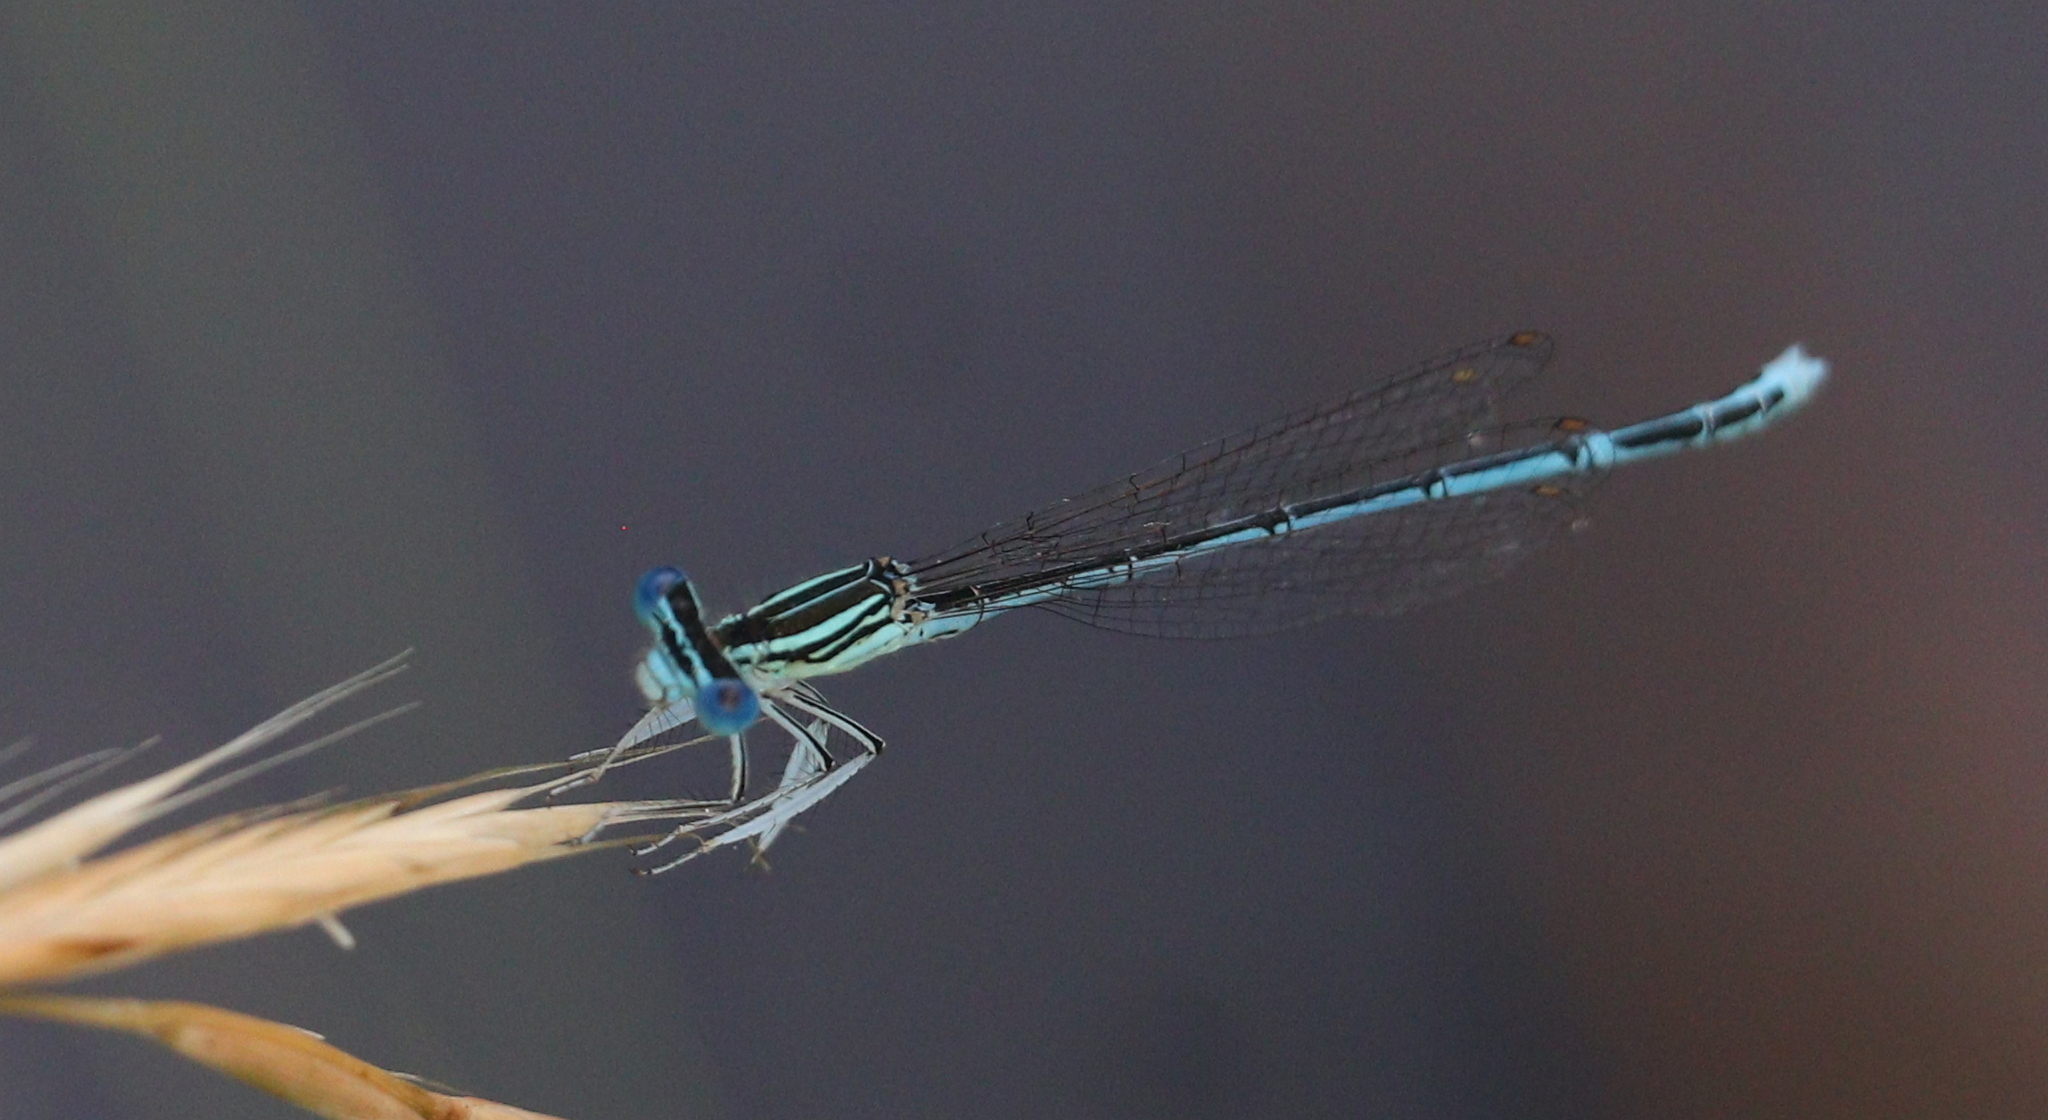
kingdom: Animalia
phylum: Arthropoda
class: Insecta
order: Odonata
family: Platycnemididae
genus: Platycnemis
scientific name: Platycnemis pennipes
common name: White-legged damselfly
